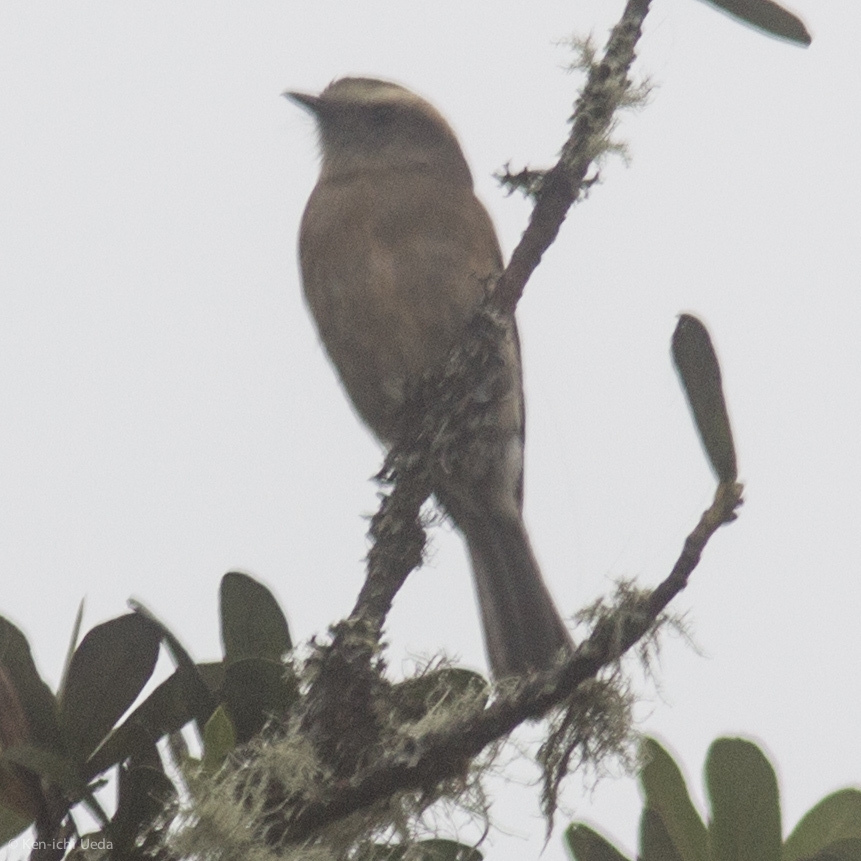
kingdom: Animalia
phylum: Chordata
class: Aves
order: Passeriformes
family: Tyrannidae
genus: Ochthoeca
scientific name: Ochthoeca fumicolor
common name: Brown-backed chat-tyrant
